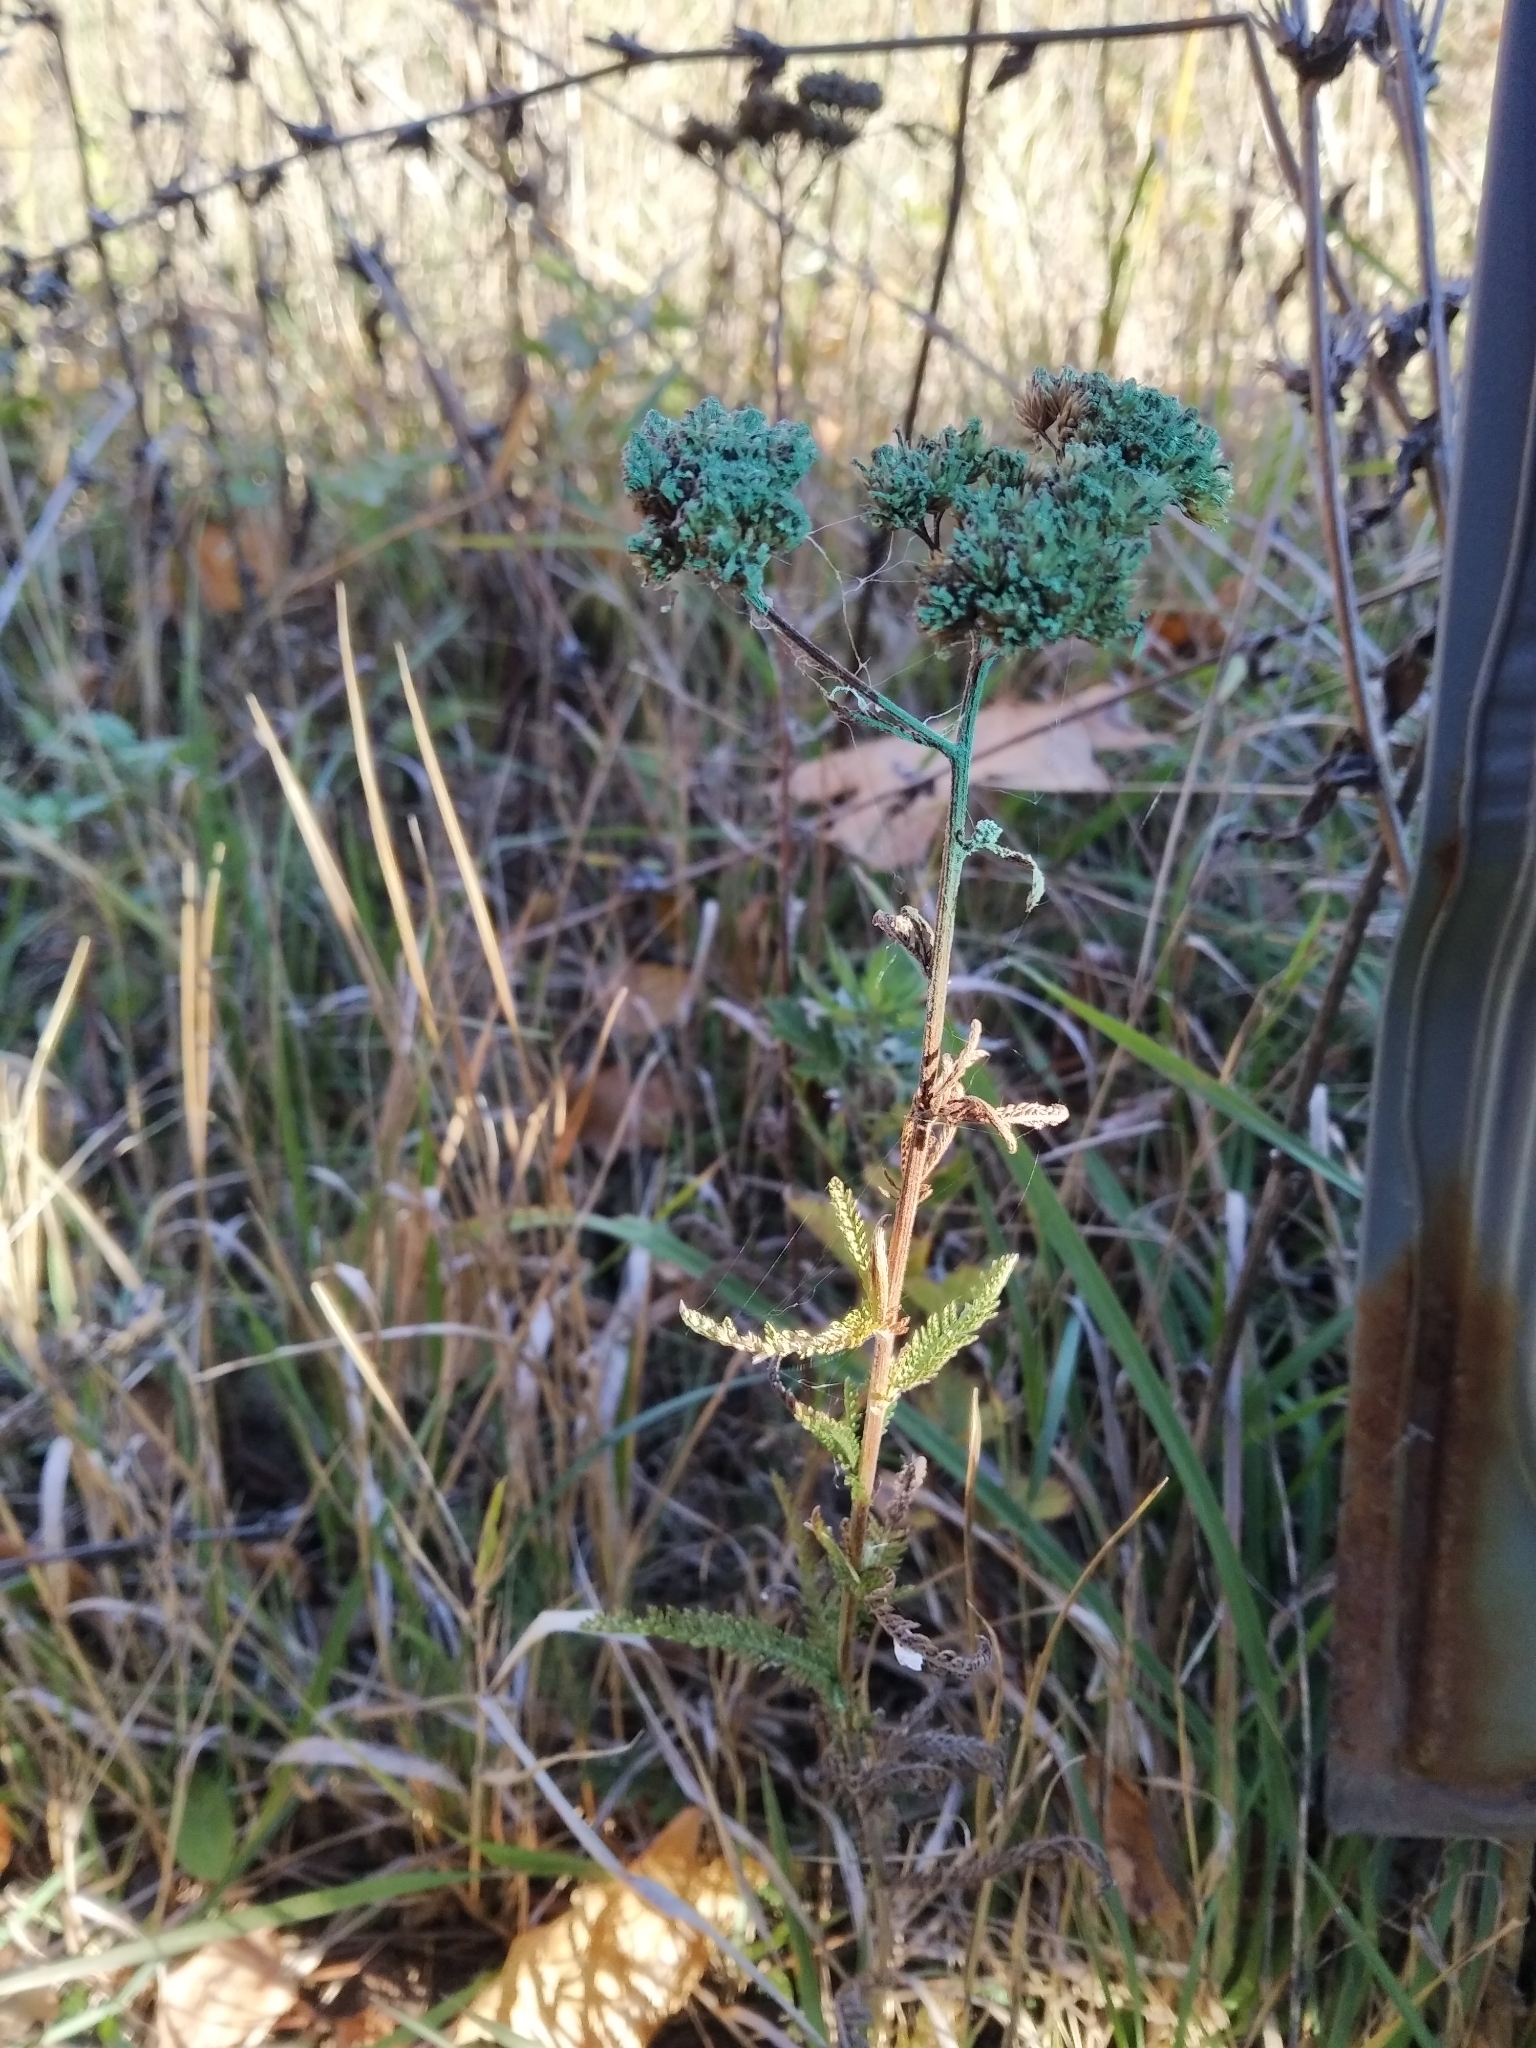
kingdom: Plantae
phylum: Tracheophyta
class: Magnoliopsida
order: Asterales
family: Asteraceae
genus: Achillea
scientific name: Achillea millefolium
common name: Yarrow
